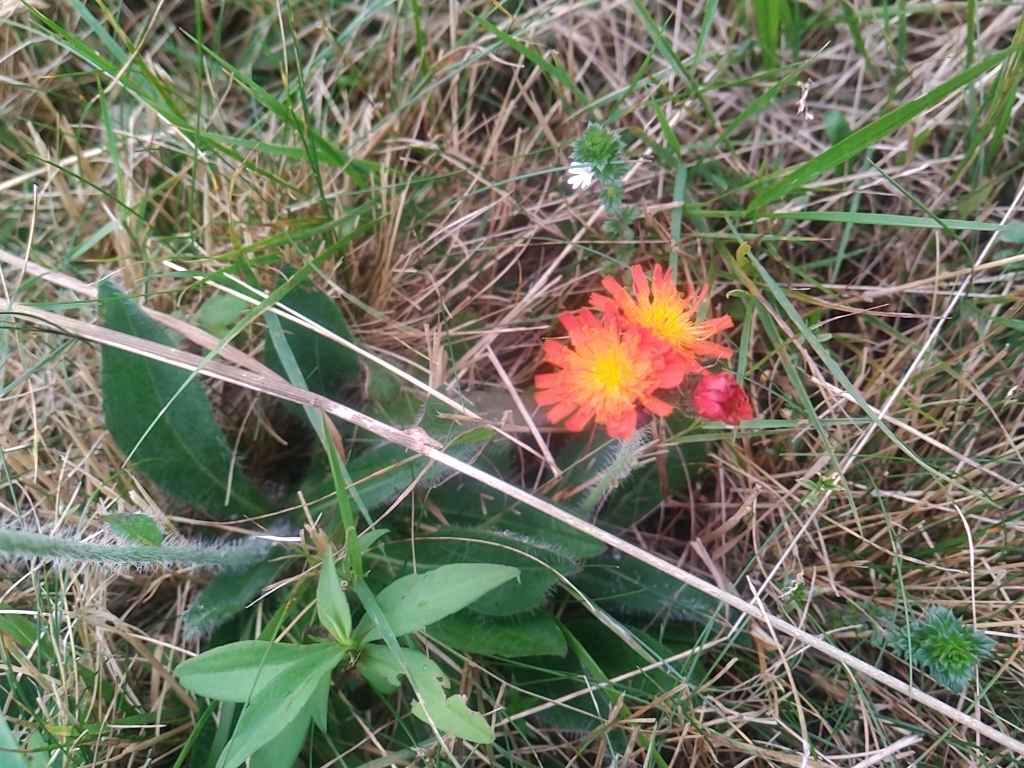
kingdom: Plantae
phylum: Tracheophyta
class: Magnoliopsida
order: Asterales
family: Asteraceae
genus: Pilosella
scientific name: Pilosella aurantiaca
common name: Fox-and-cubs
